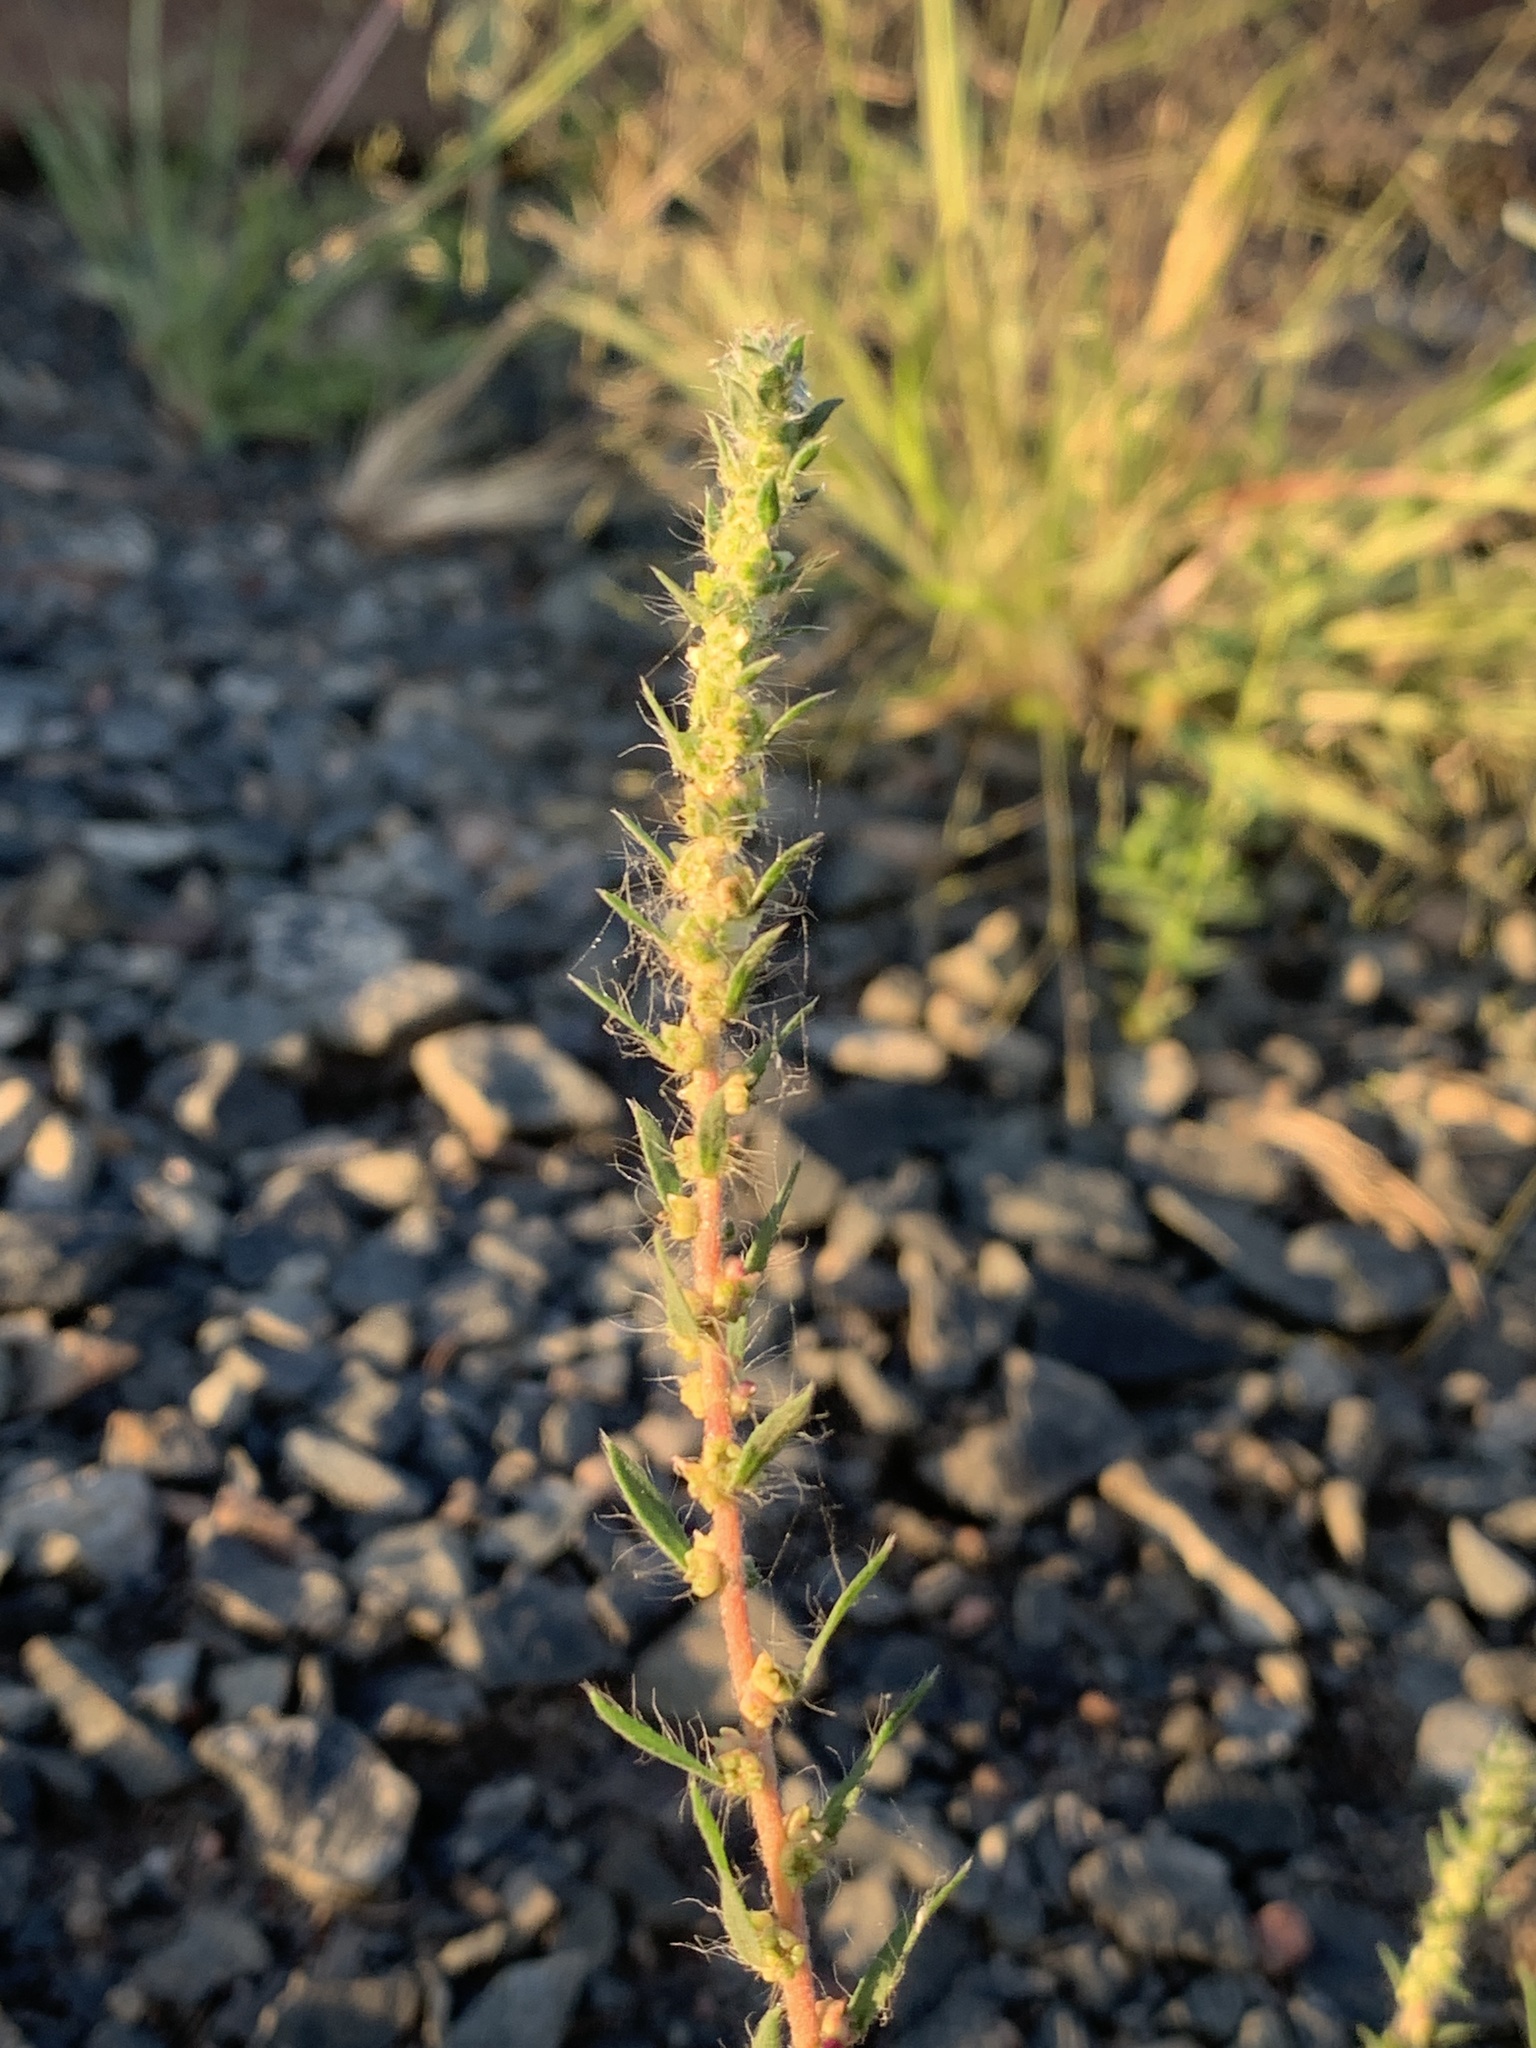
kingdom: Plantae
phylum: Tracheophyta
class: Magnoliopsida
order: Caryophyllales
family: Amaranthaceae
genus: Bassia
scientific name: Bassia scoparia
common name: Belvedere
